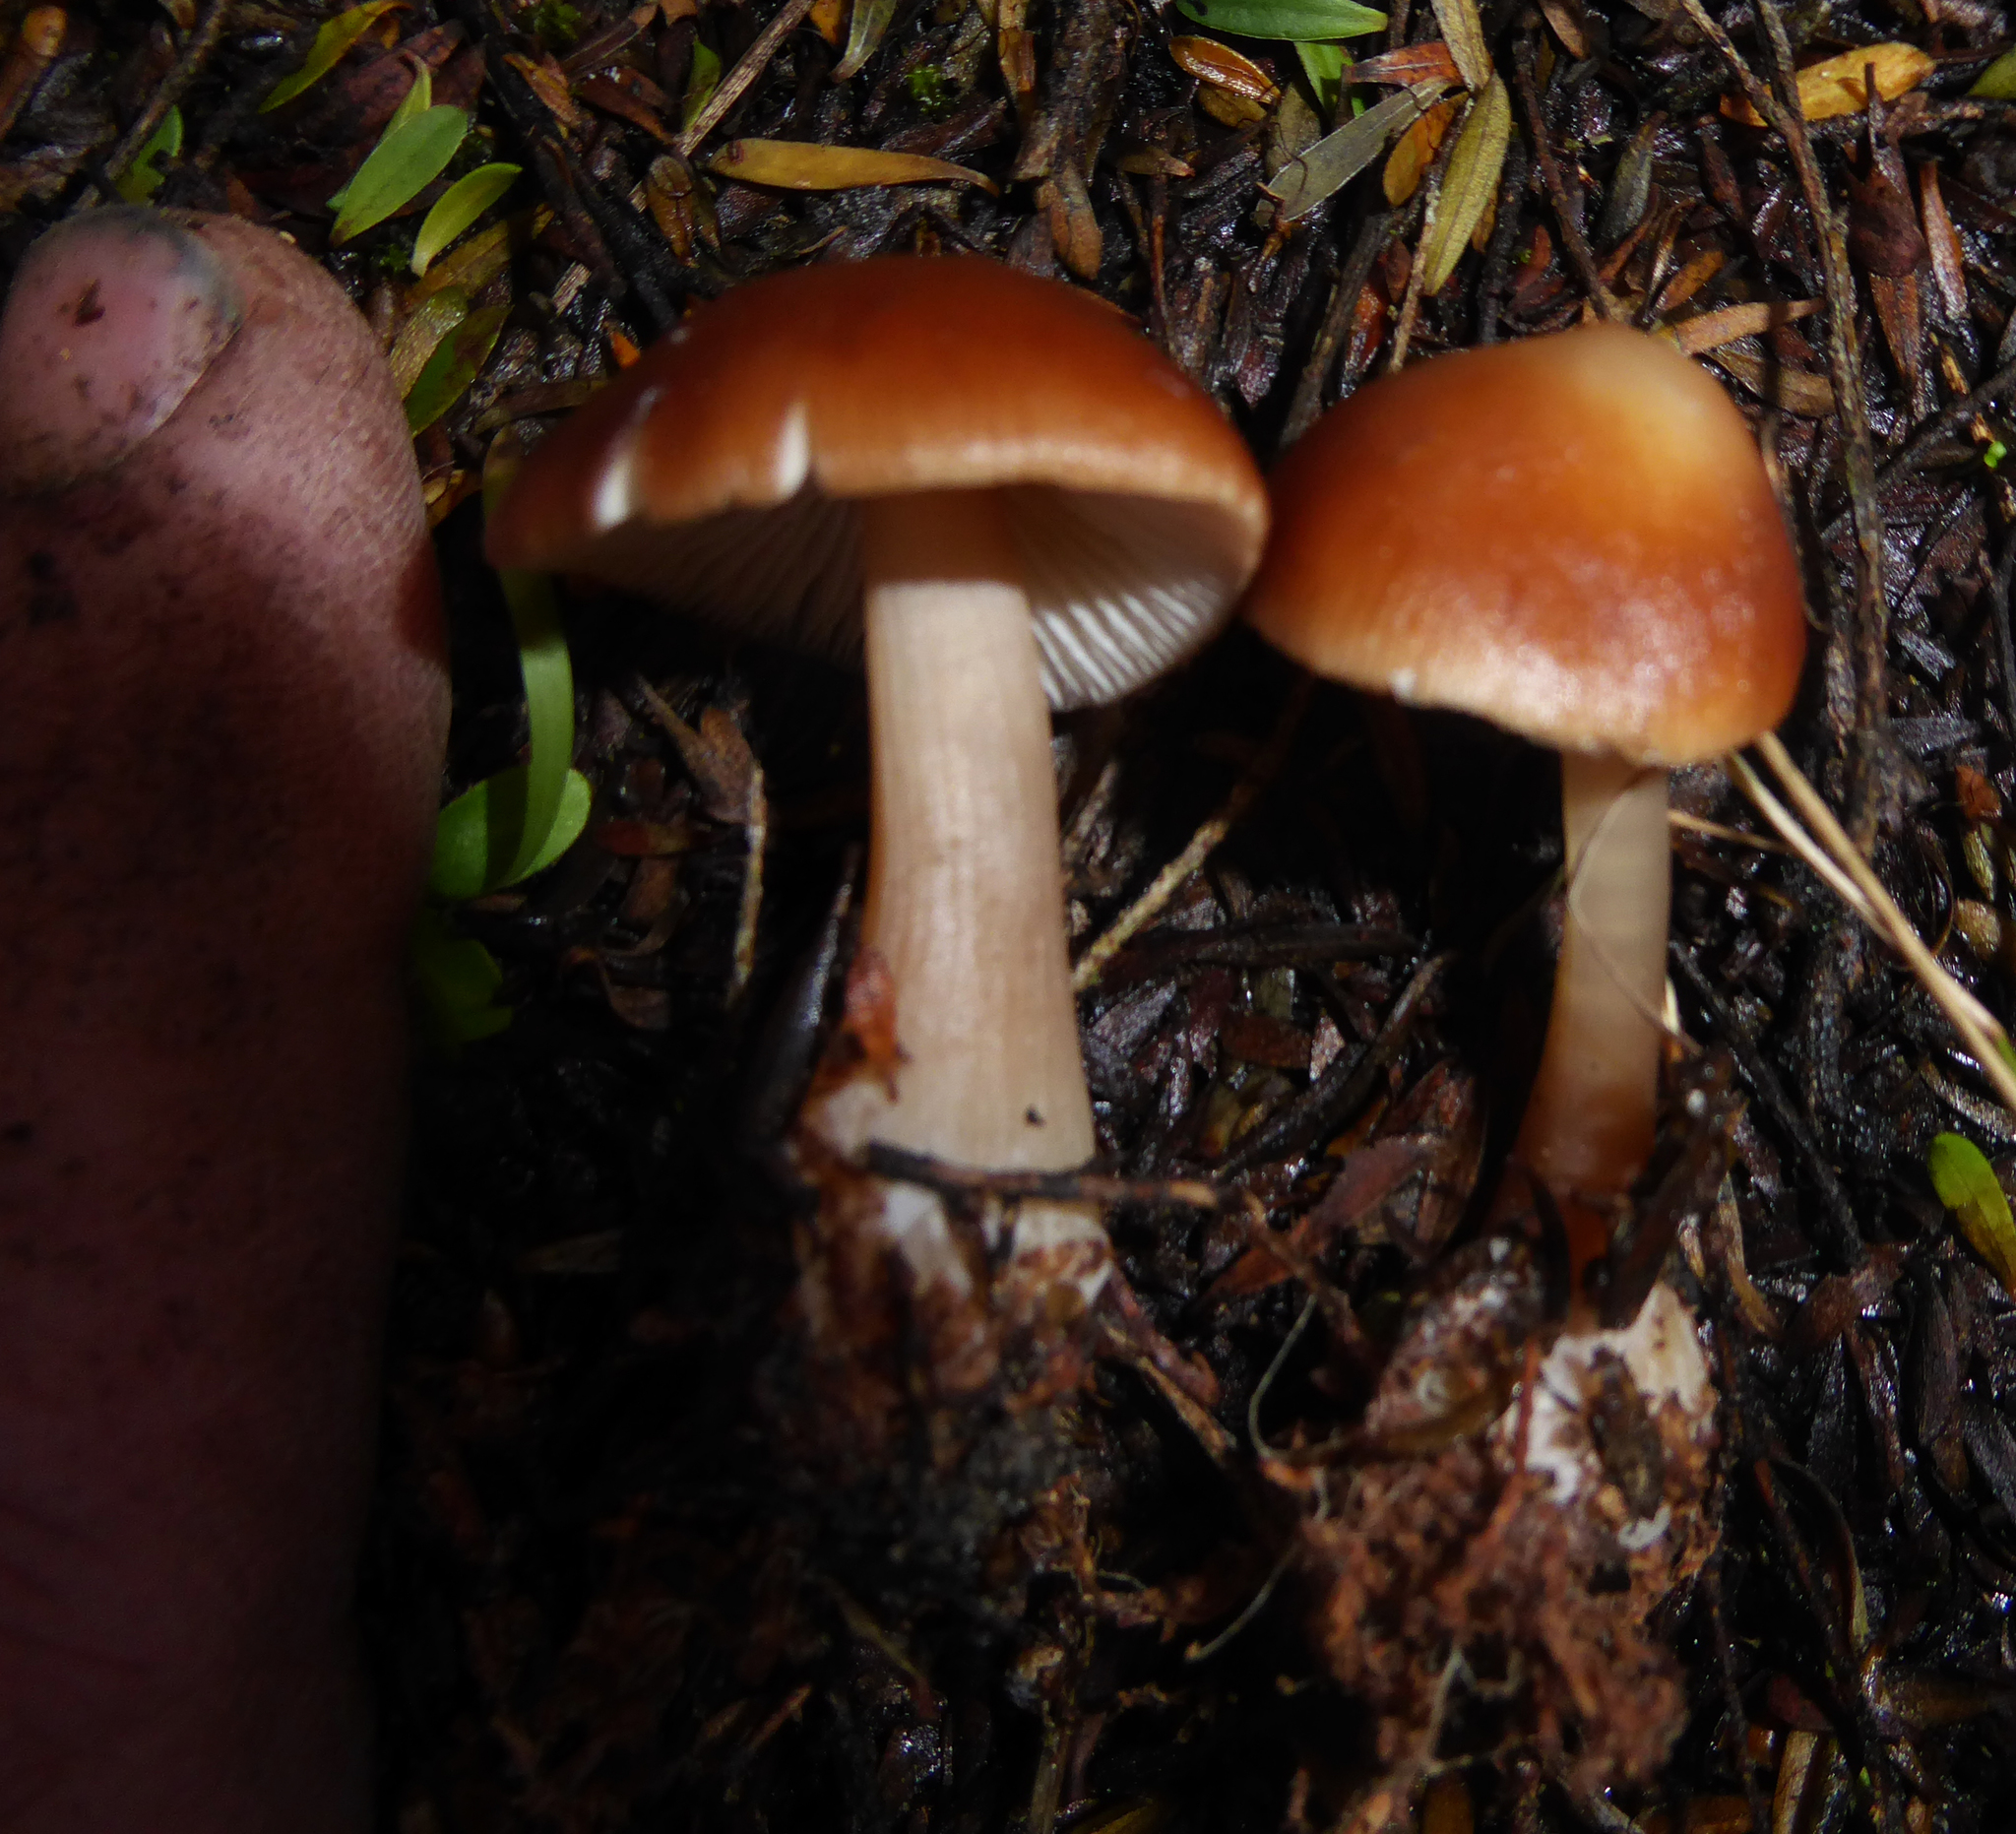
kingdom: Fungi
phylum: Basidiomycota
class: Agaricomycetes
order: Agaricales
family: Omphalotaceae
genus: Rhodocollybia
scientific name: Rhodocollybia incarnata
